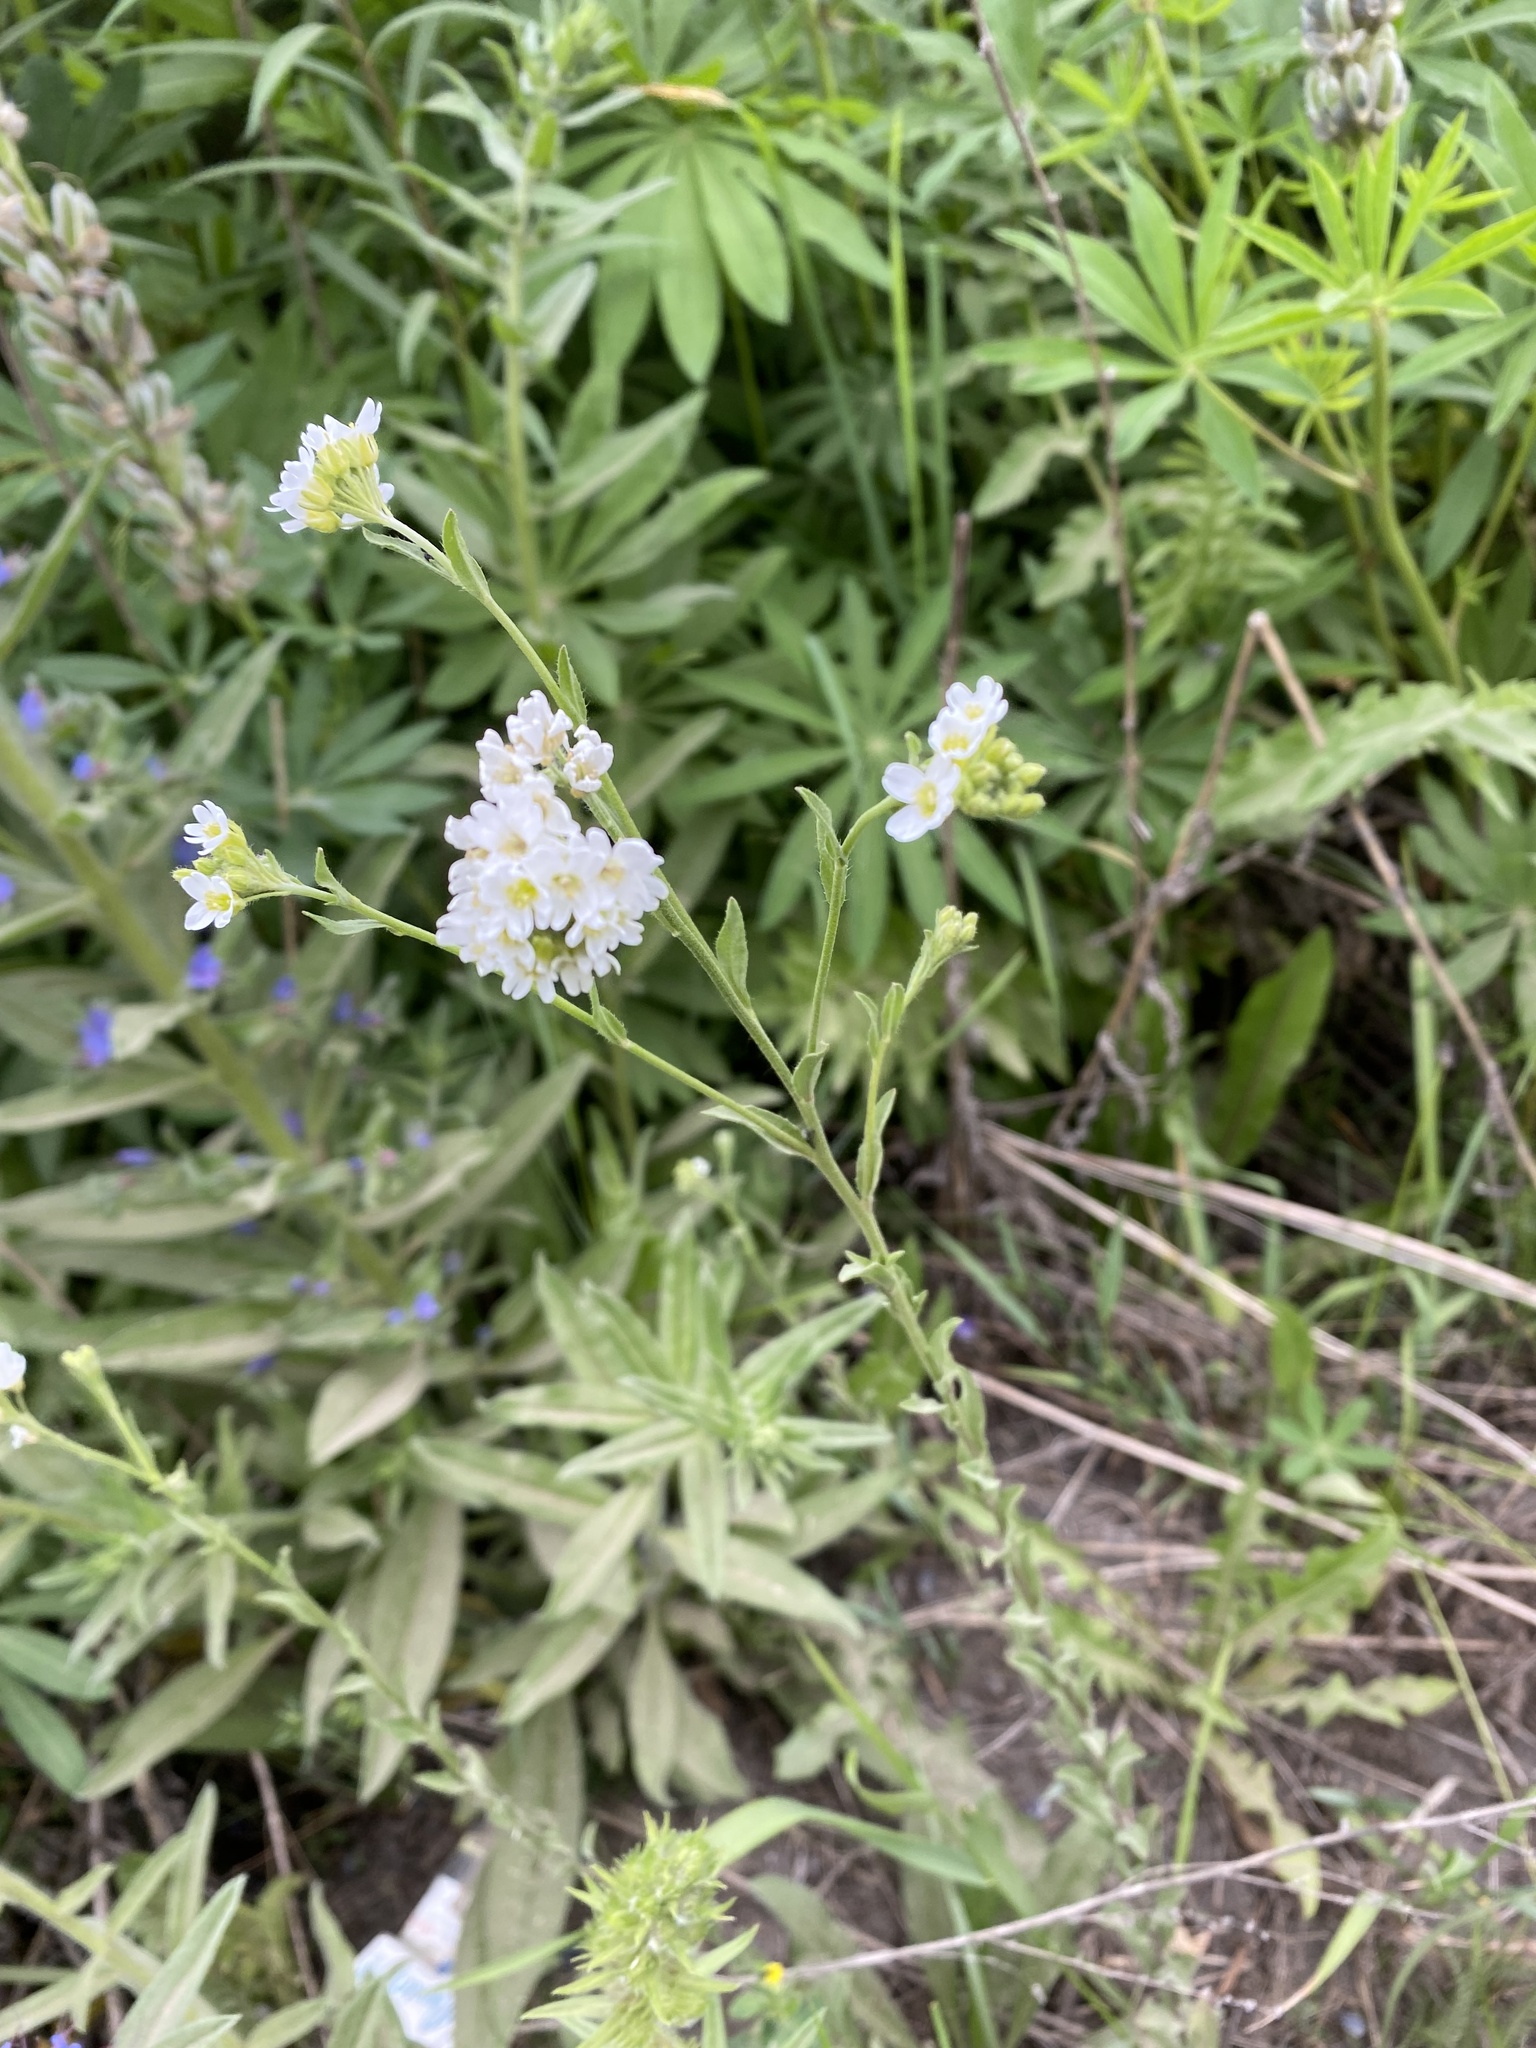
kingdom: Plantae
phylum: Tracheophyta
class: Magnoliopsida
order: Brassicales
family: Brassicaceae
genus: Berteroa
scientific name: Berteroa incana
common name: Hoary alison
